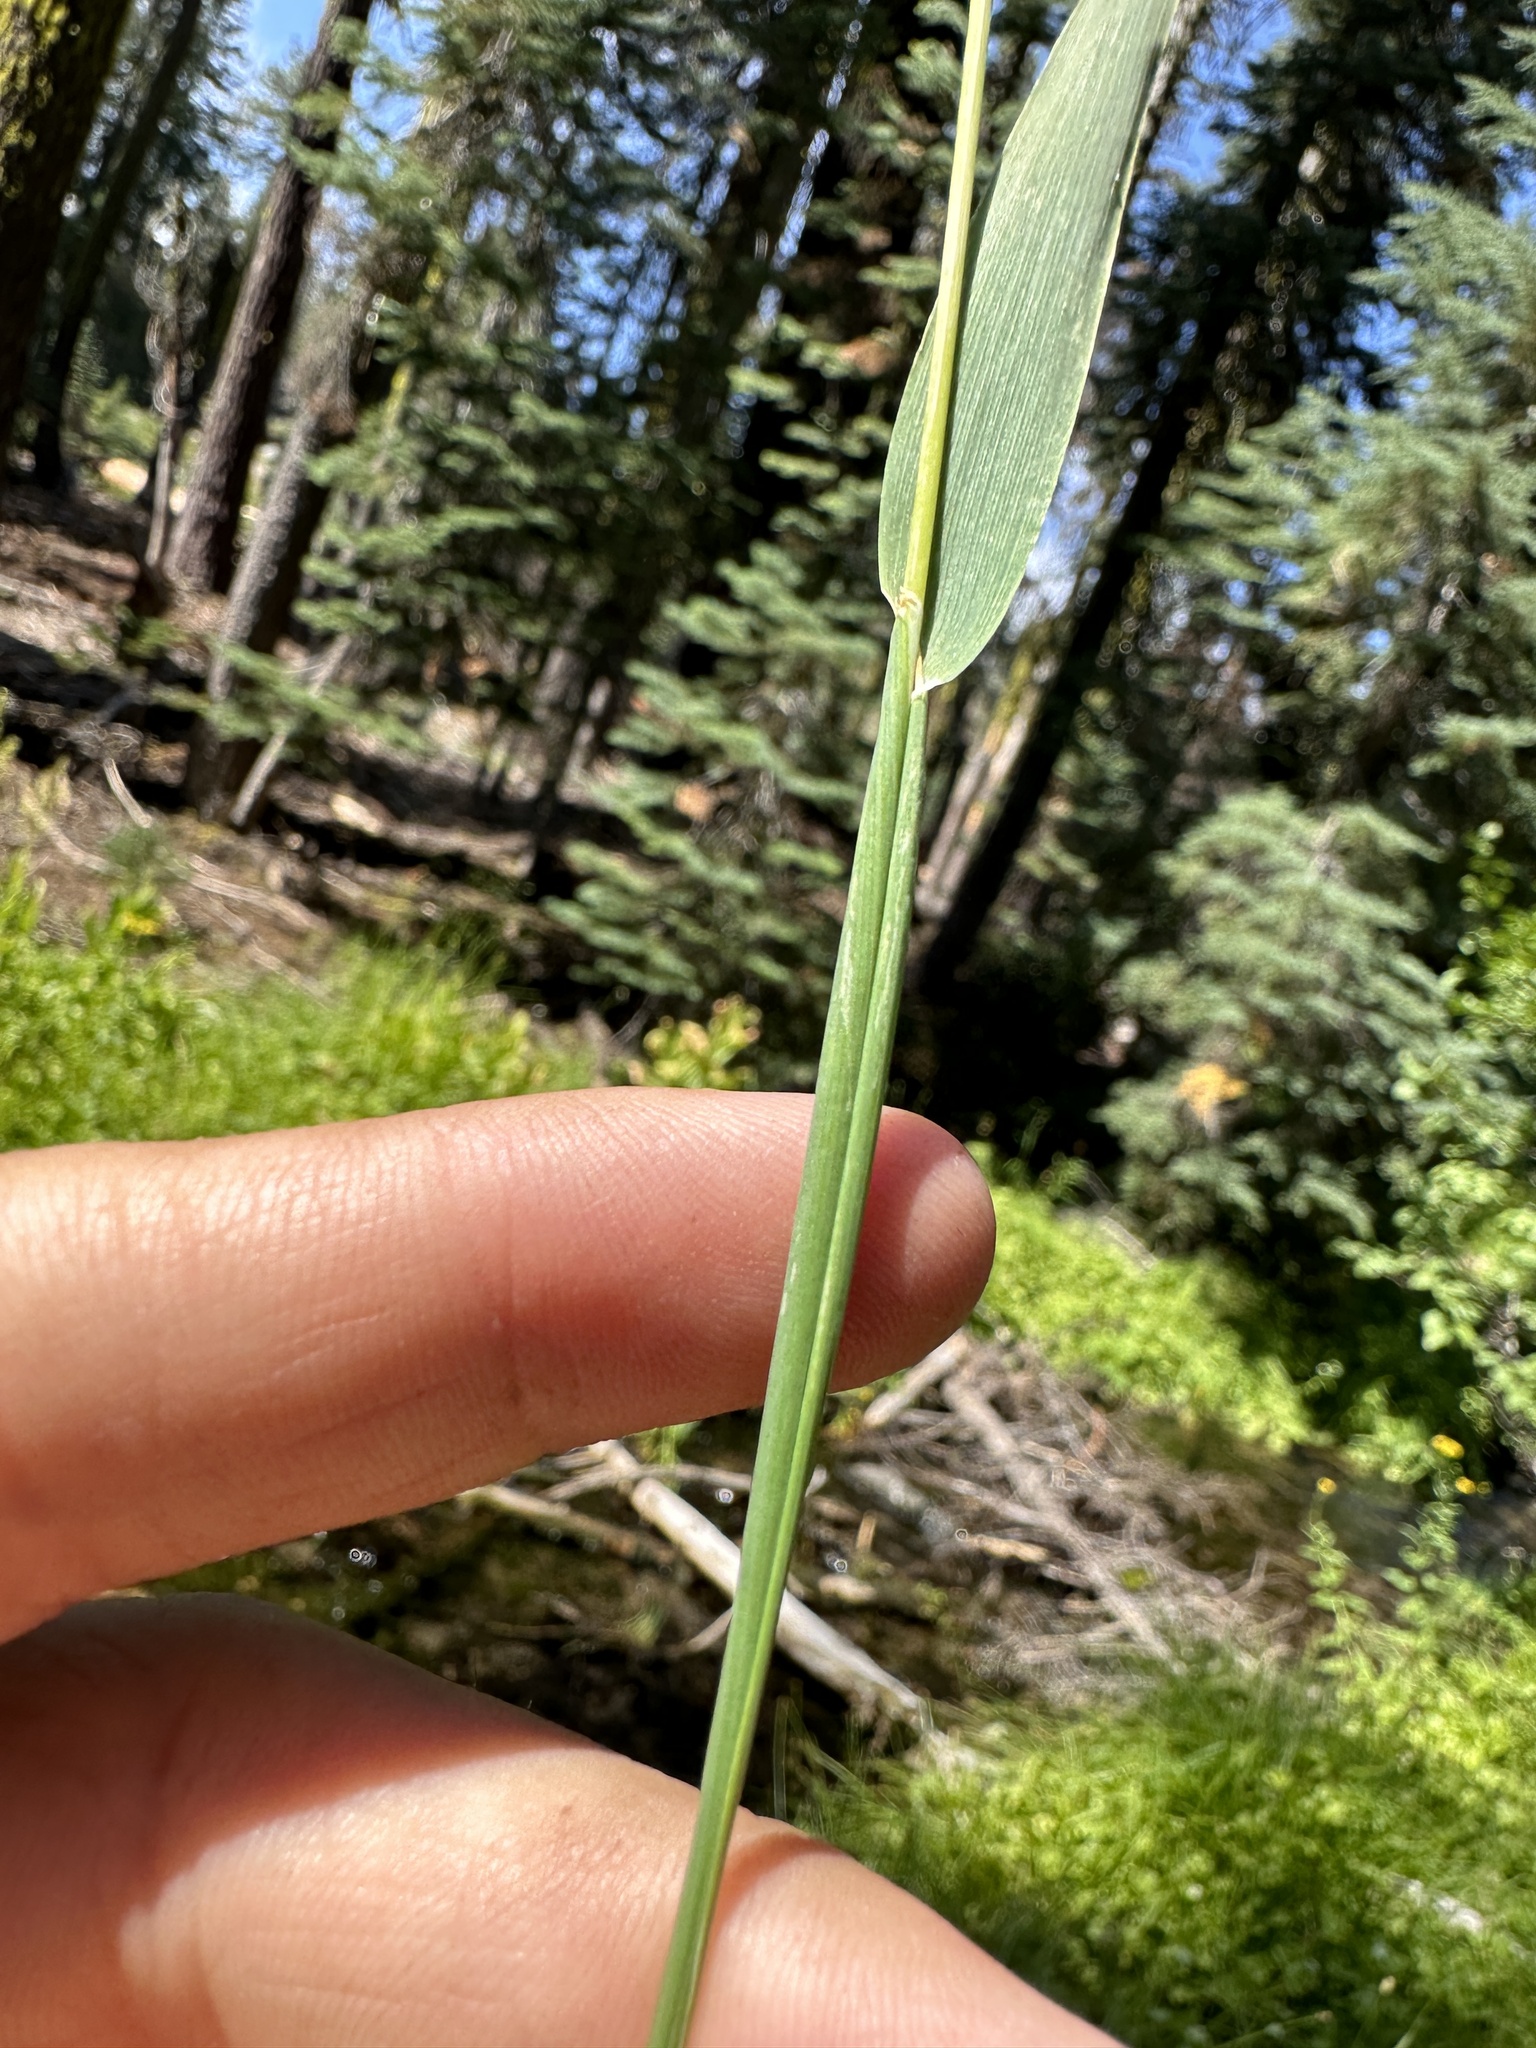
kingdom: Plantae
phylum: Tracheophyta
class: Liliopsida
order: Poales
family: Poaceae
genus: Phleum
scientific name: Phleum alpinum
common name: Alpine cat's-tail
